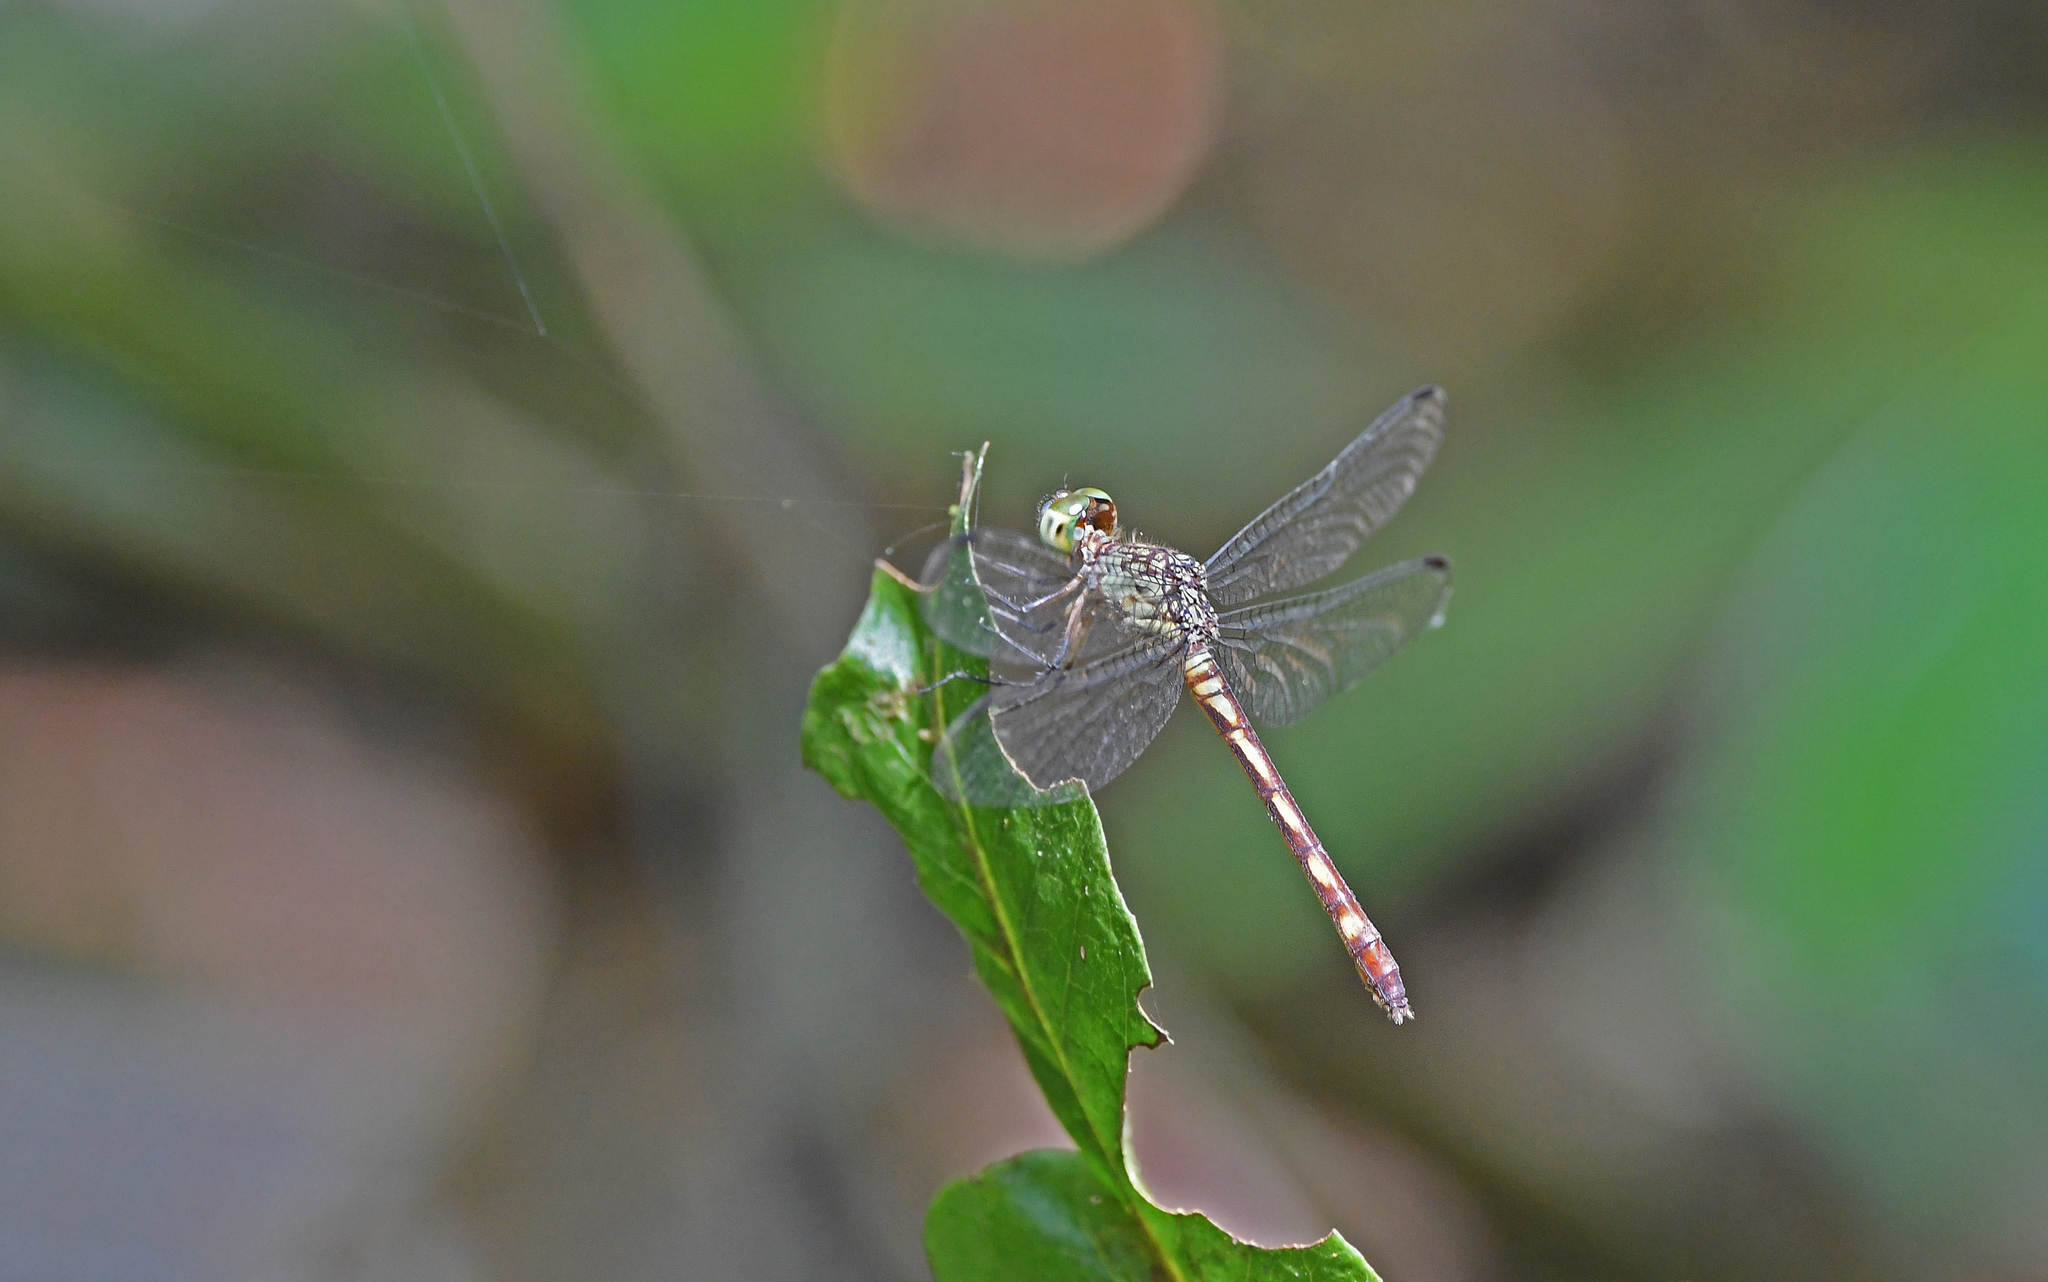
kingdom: Animalia
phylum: Arthropoda
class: Insecta
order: Odonata
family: Libellulidae
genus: Anatya
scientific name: Anatya guttata
